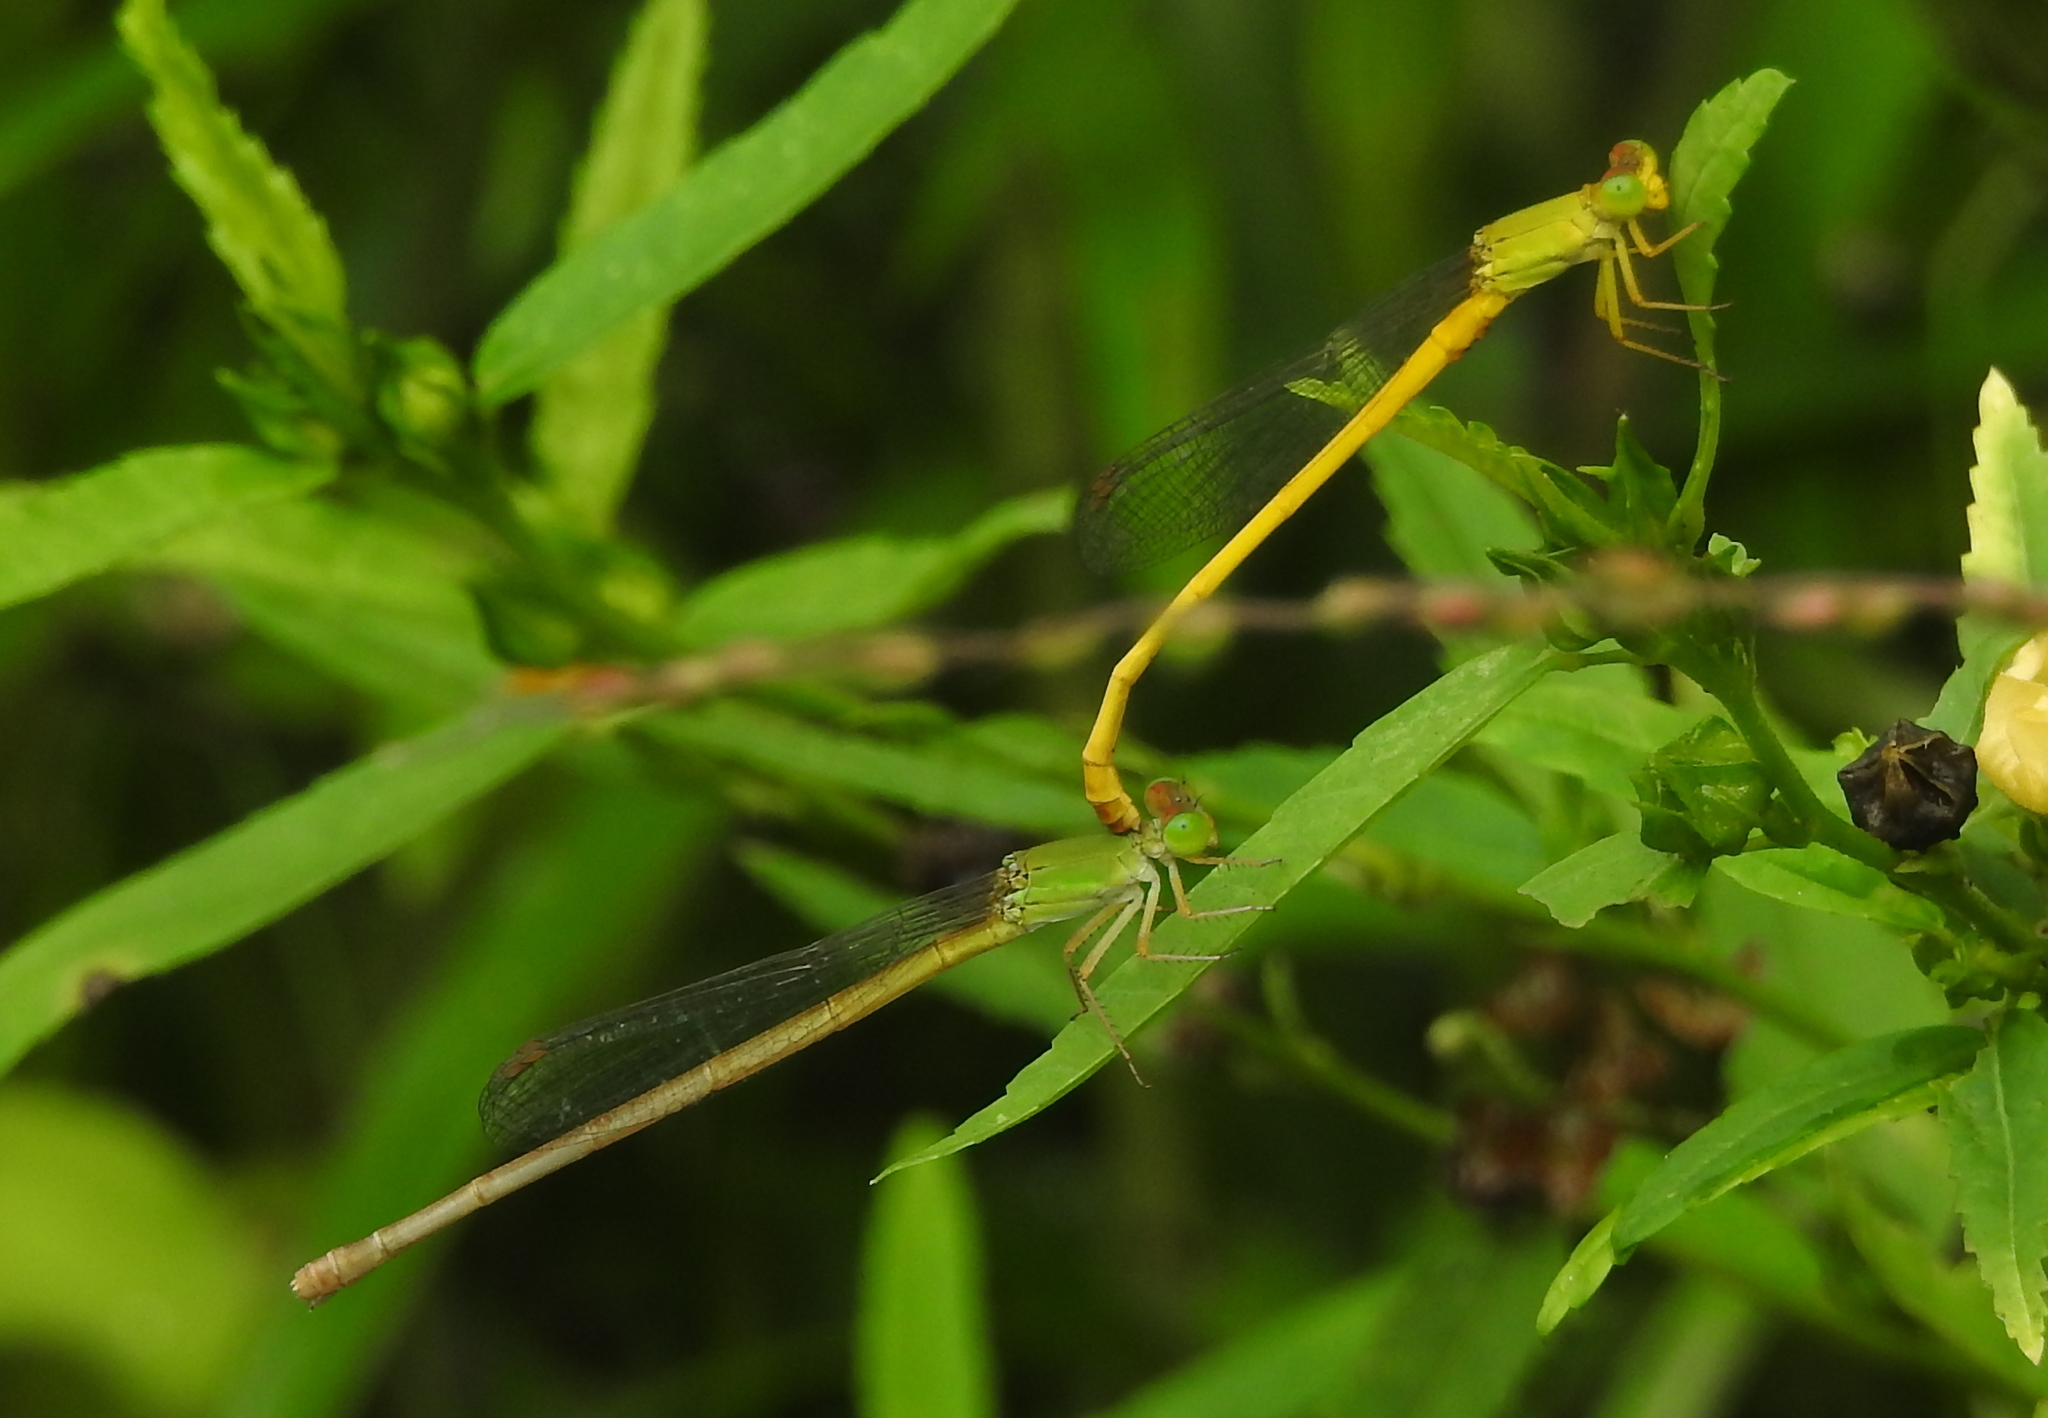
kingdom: Animalia
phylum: Arthropoda
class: Insecta
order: Odonata
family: Coenagrionidae
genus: Ceriagrion
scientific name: Ceriagrion coromandelianum
